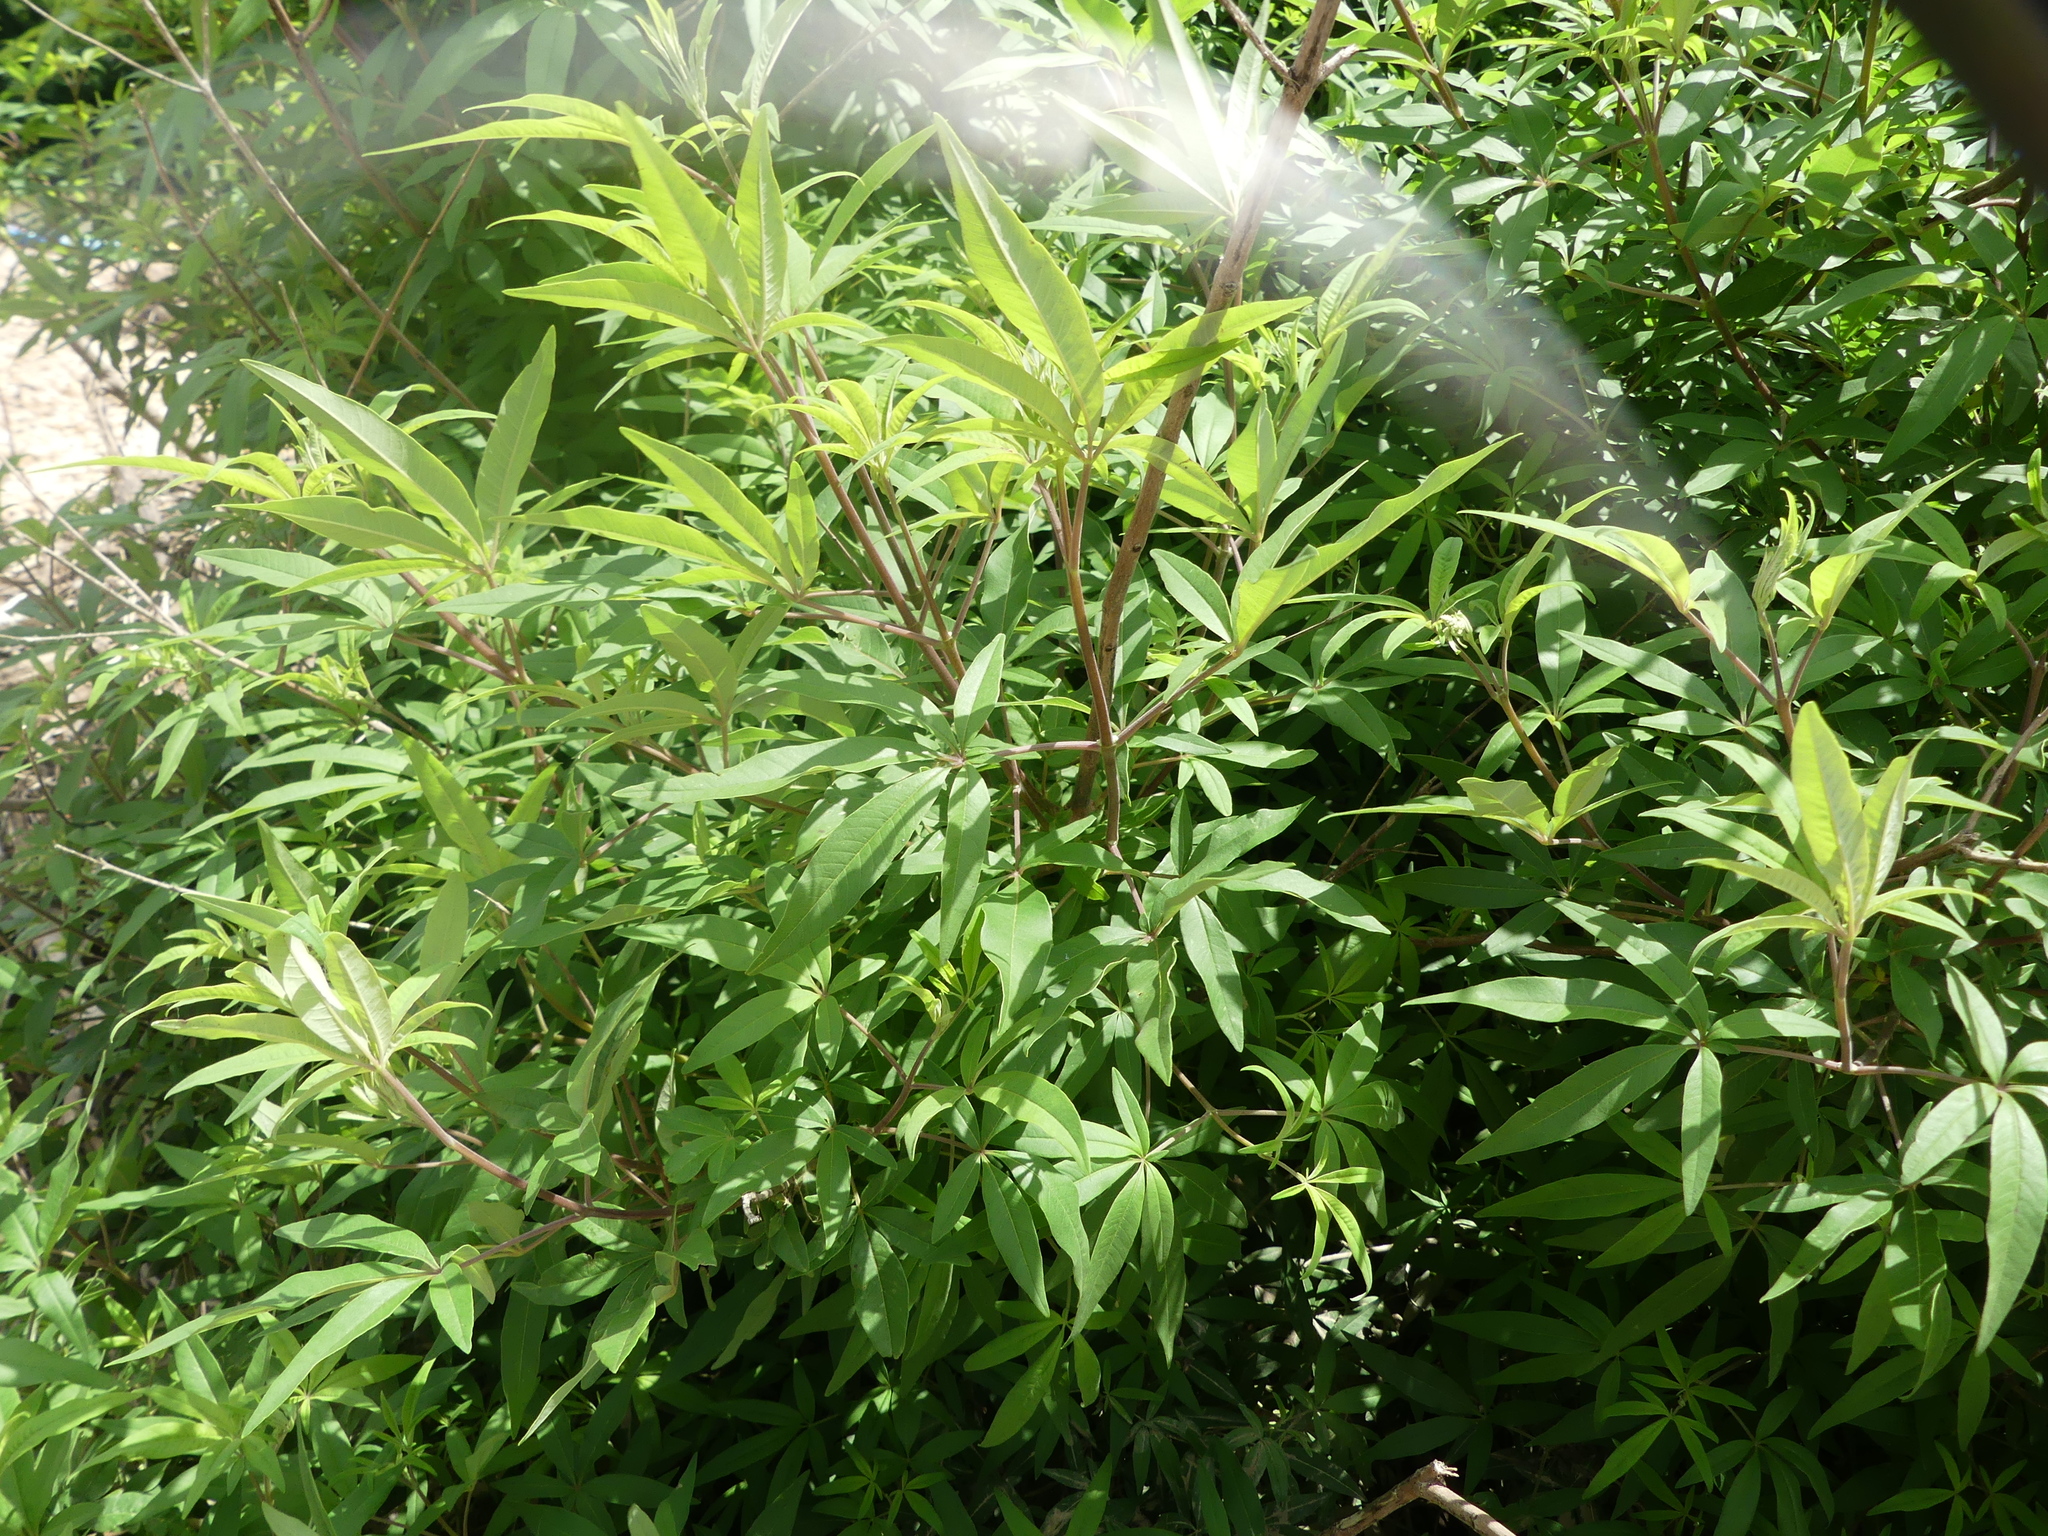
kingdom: Plantae
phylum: Tracheophyta
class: Magnoliopsida
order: Lamiales
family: Lamiaceae
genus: Vitex
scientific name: Vitex agnus-castus
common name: Chasteberry
